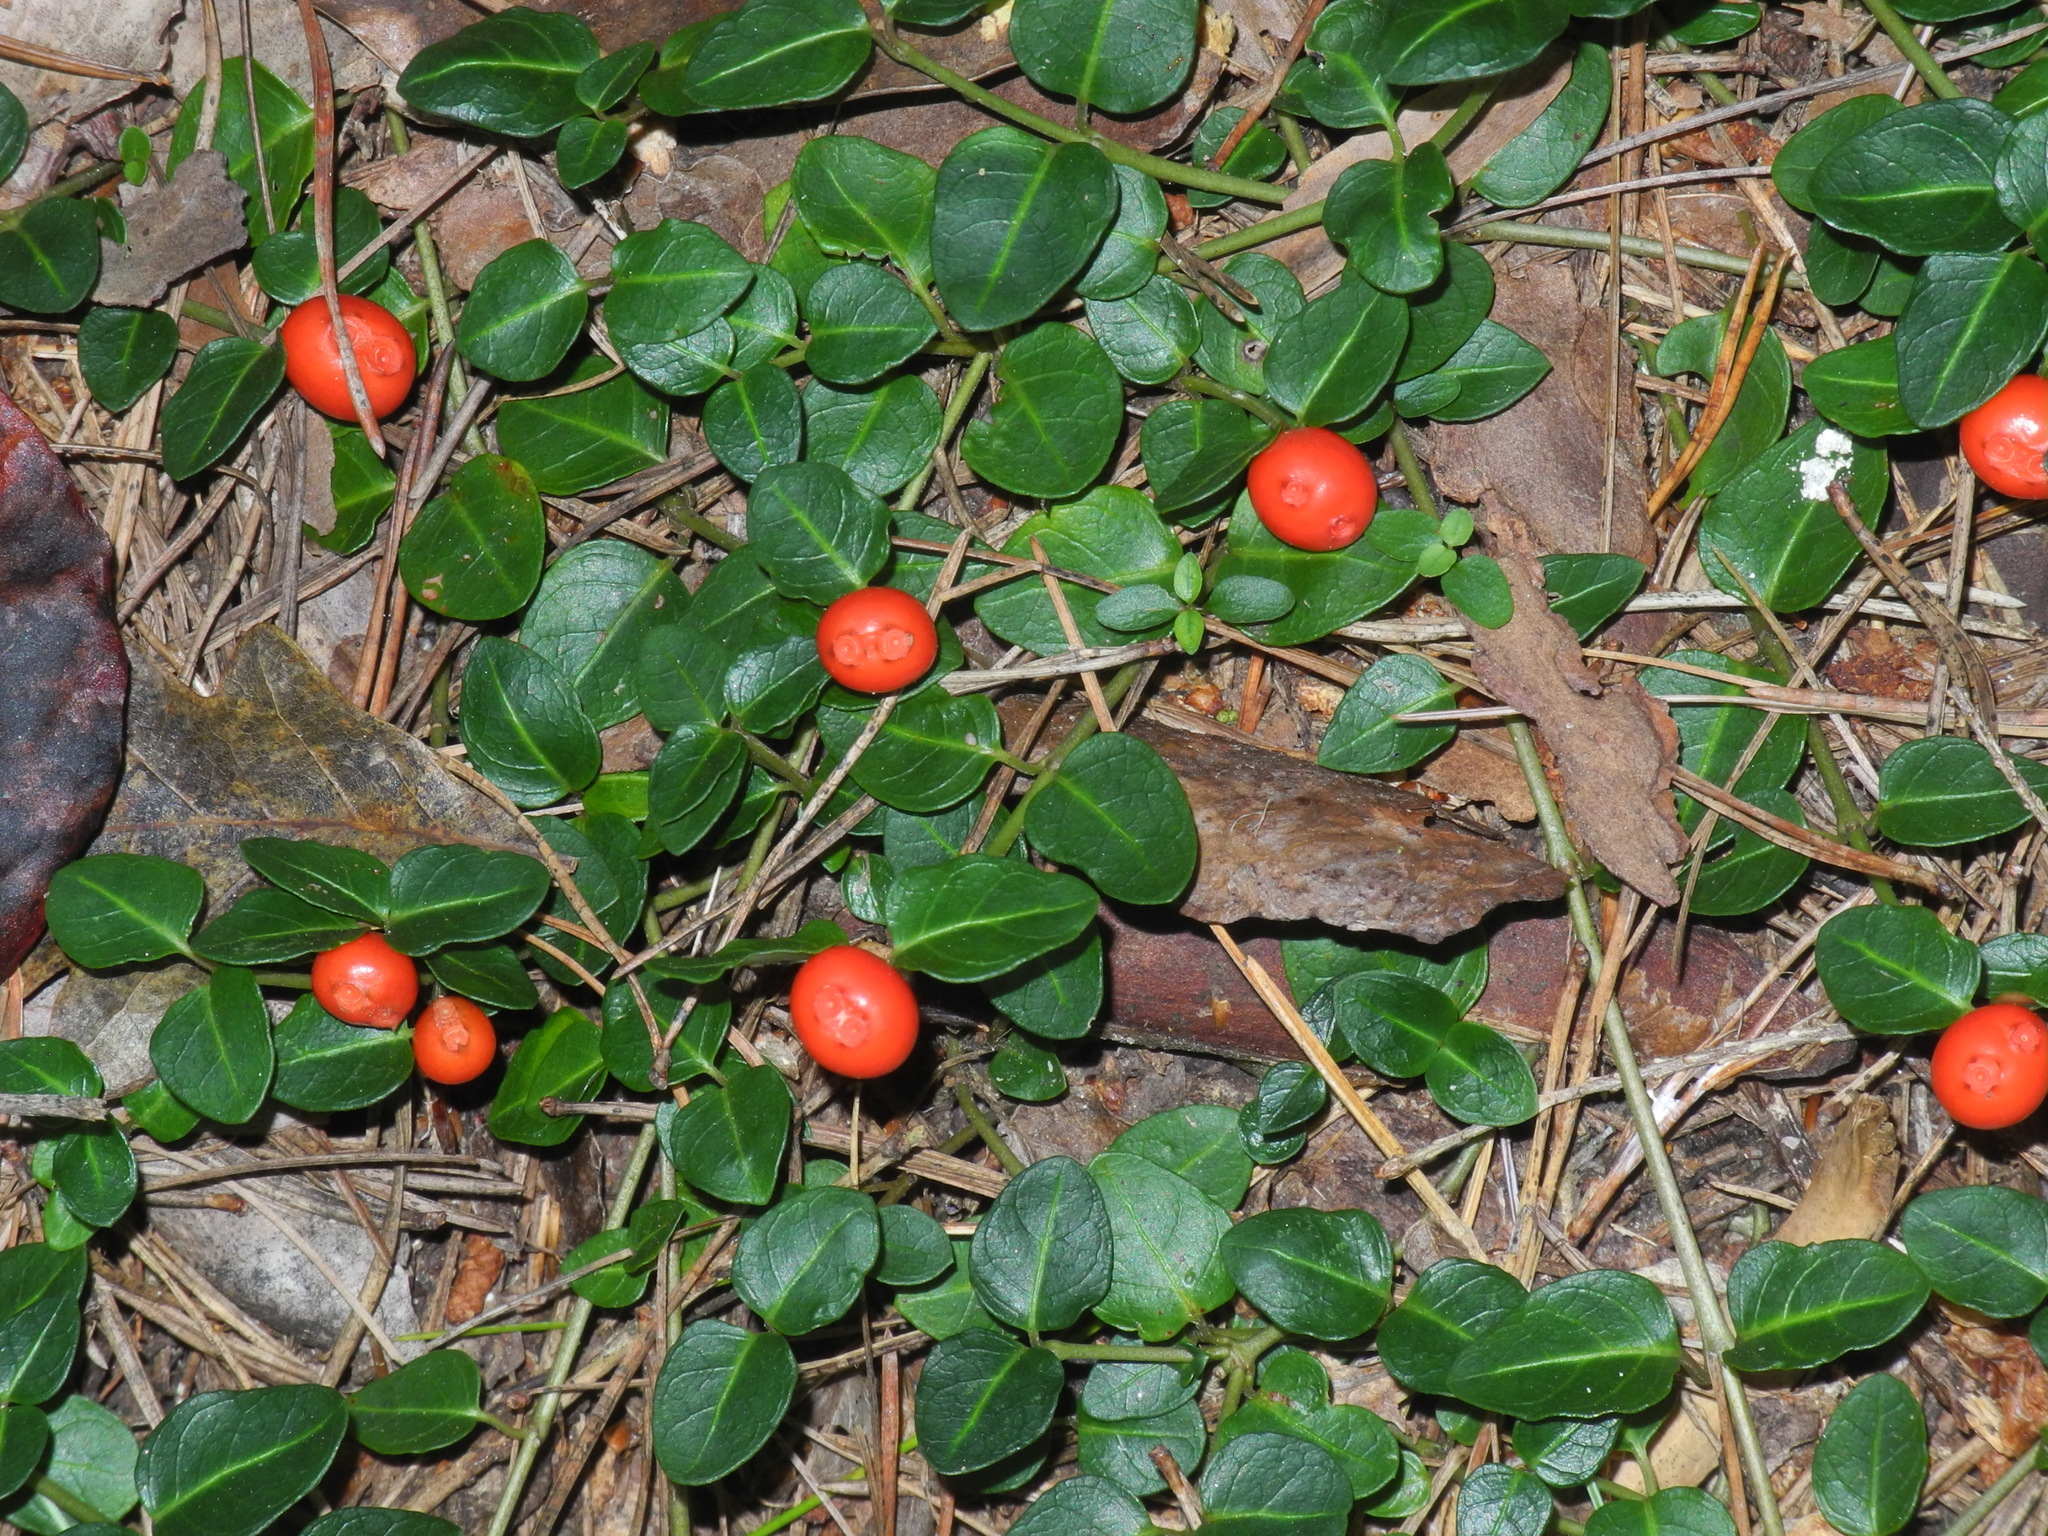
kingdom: Plantae
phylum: Tracheophyta
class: Magnoliopsida
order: Gentianales
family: Rubiaceae
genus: Mitchella
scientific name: Mitchella repens
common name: Partridge-berry
